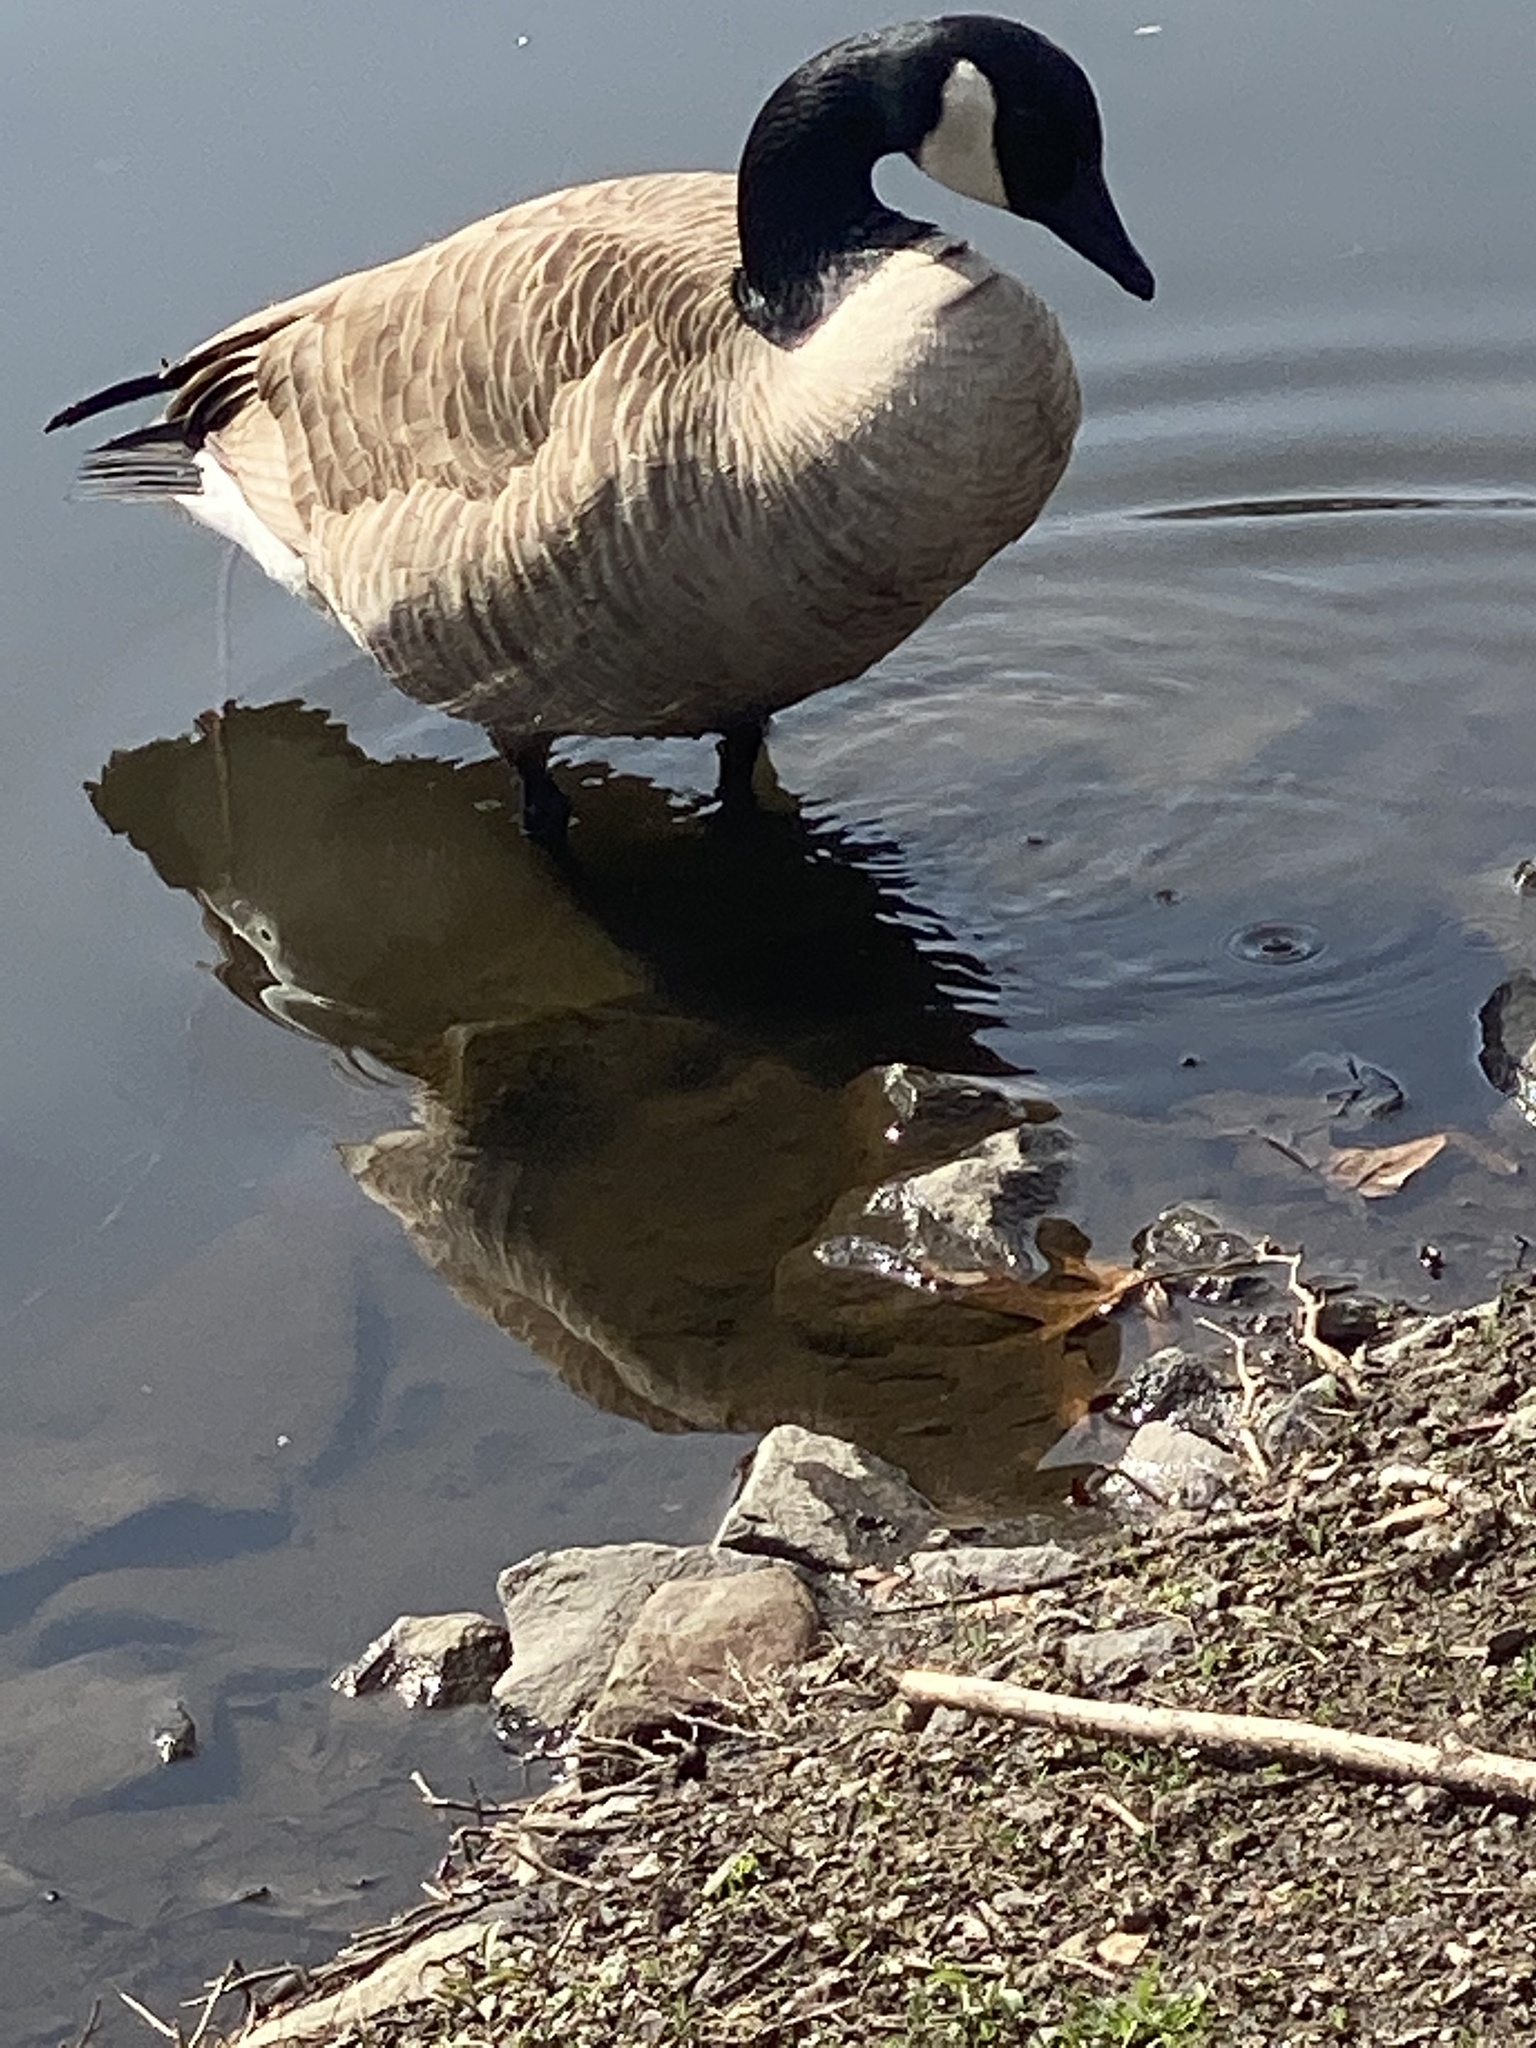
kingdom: Animalia
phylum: Chordata
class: Aves
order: Anseriformes
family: Anatidae
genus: Branta
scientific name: Branta canadensis
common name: Canada goose
